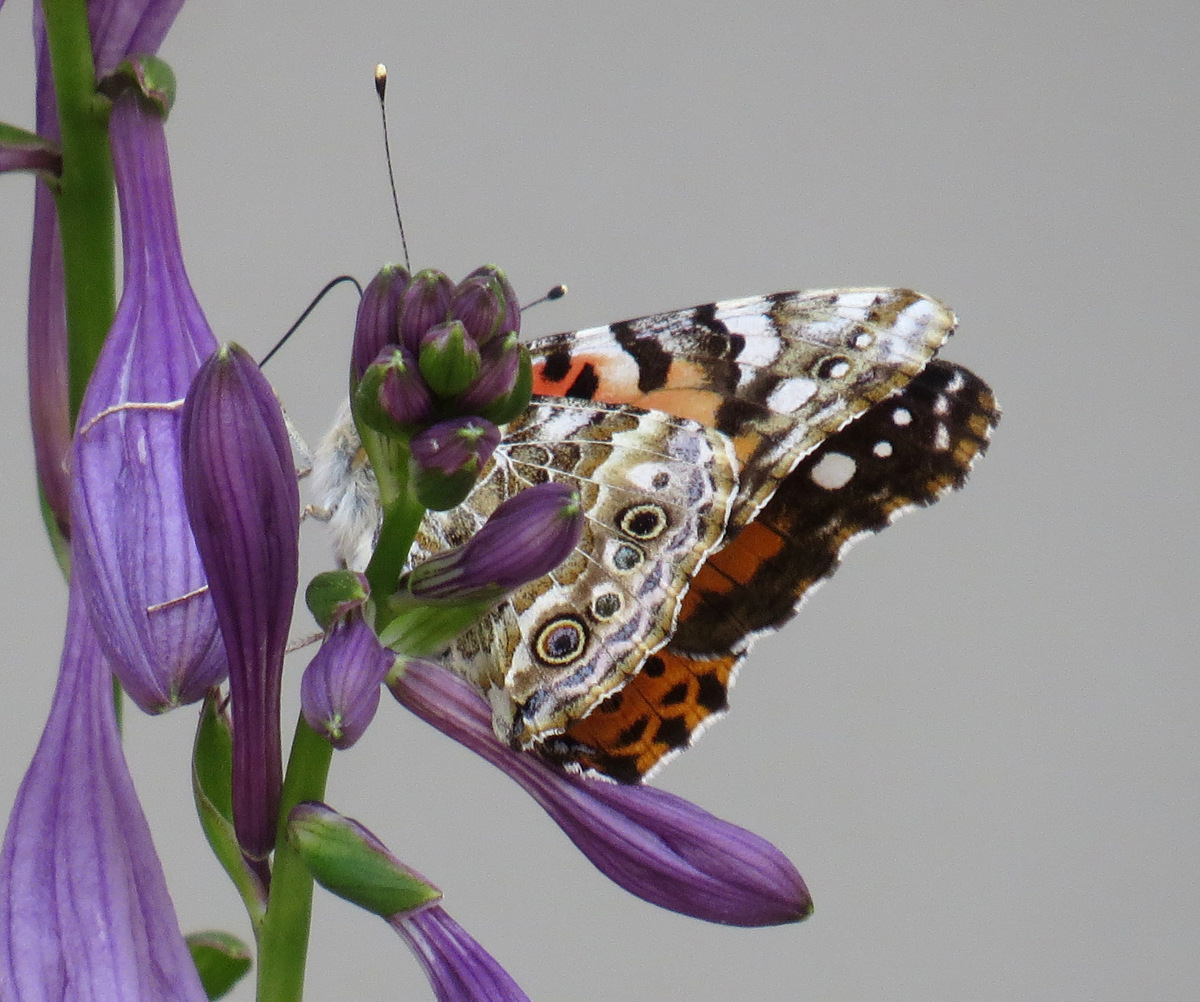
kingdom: Animalia
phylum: Arthropoda
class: Insecta
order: Lepidoptera
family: Nymphalidae
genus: Vanessa
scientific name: Vanessa cardui
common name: Painted lady
